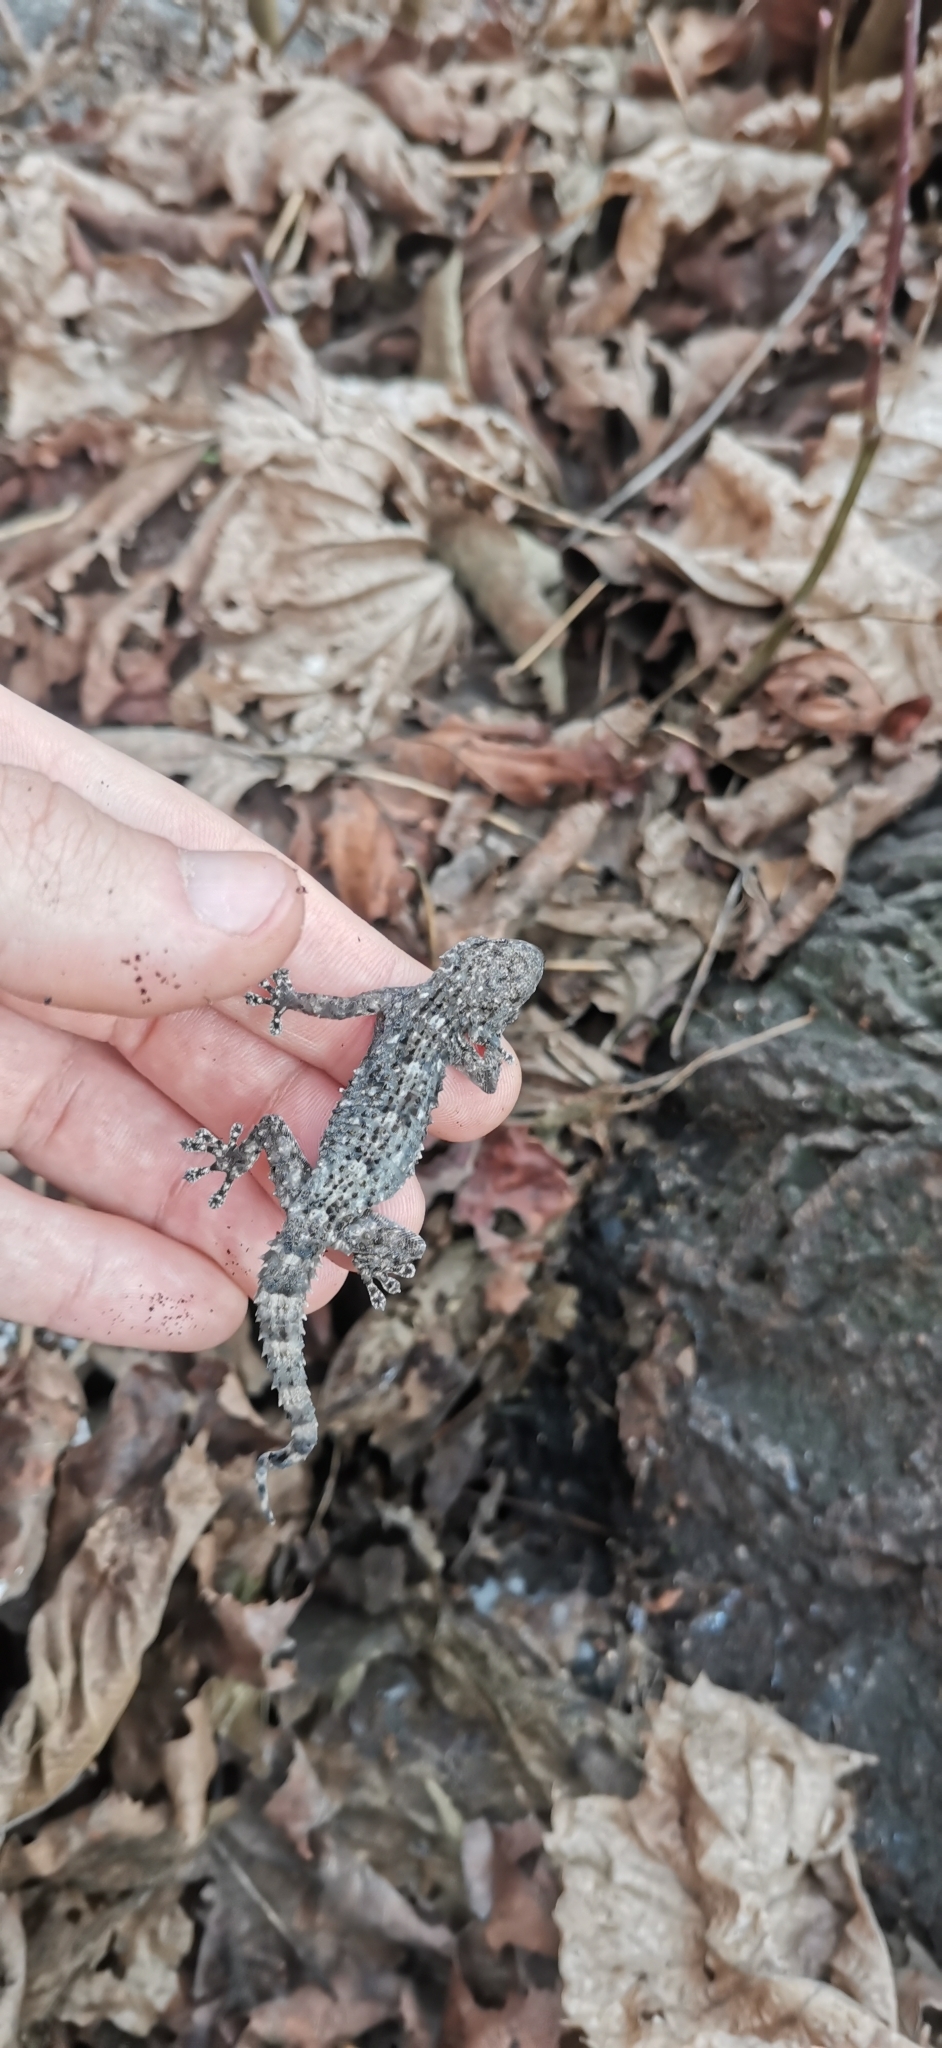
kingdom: Animalia
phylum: Chordata
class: Squamata
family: Phyllodactylidae
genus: Tarentola
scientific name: Tarentola mauritanica
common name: Moorish gecko
